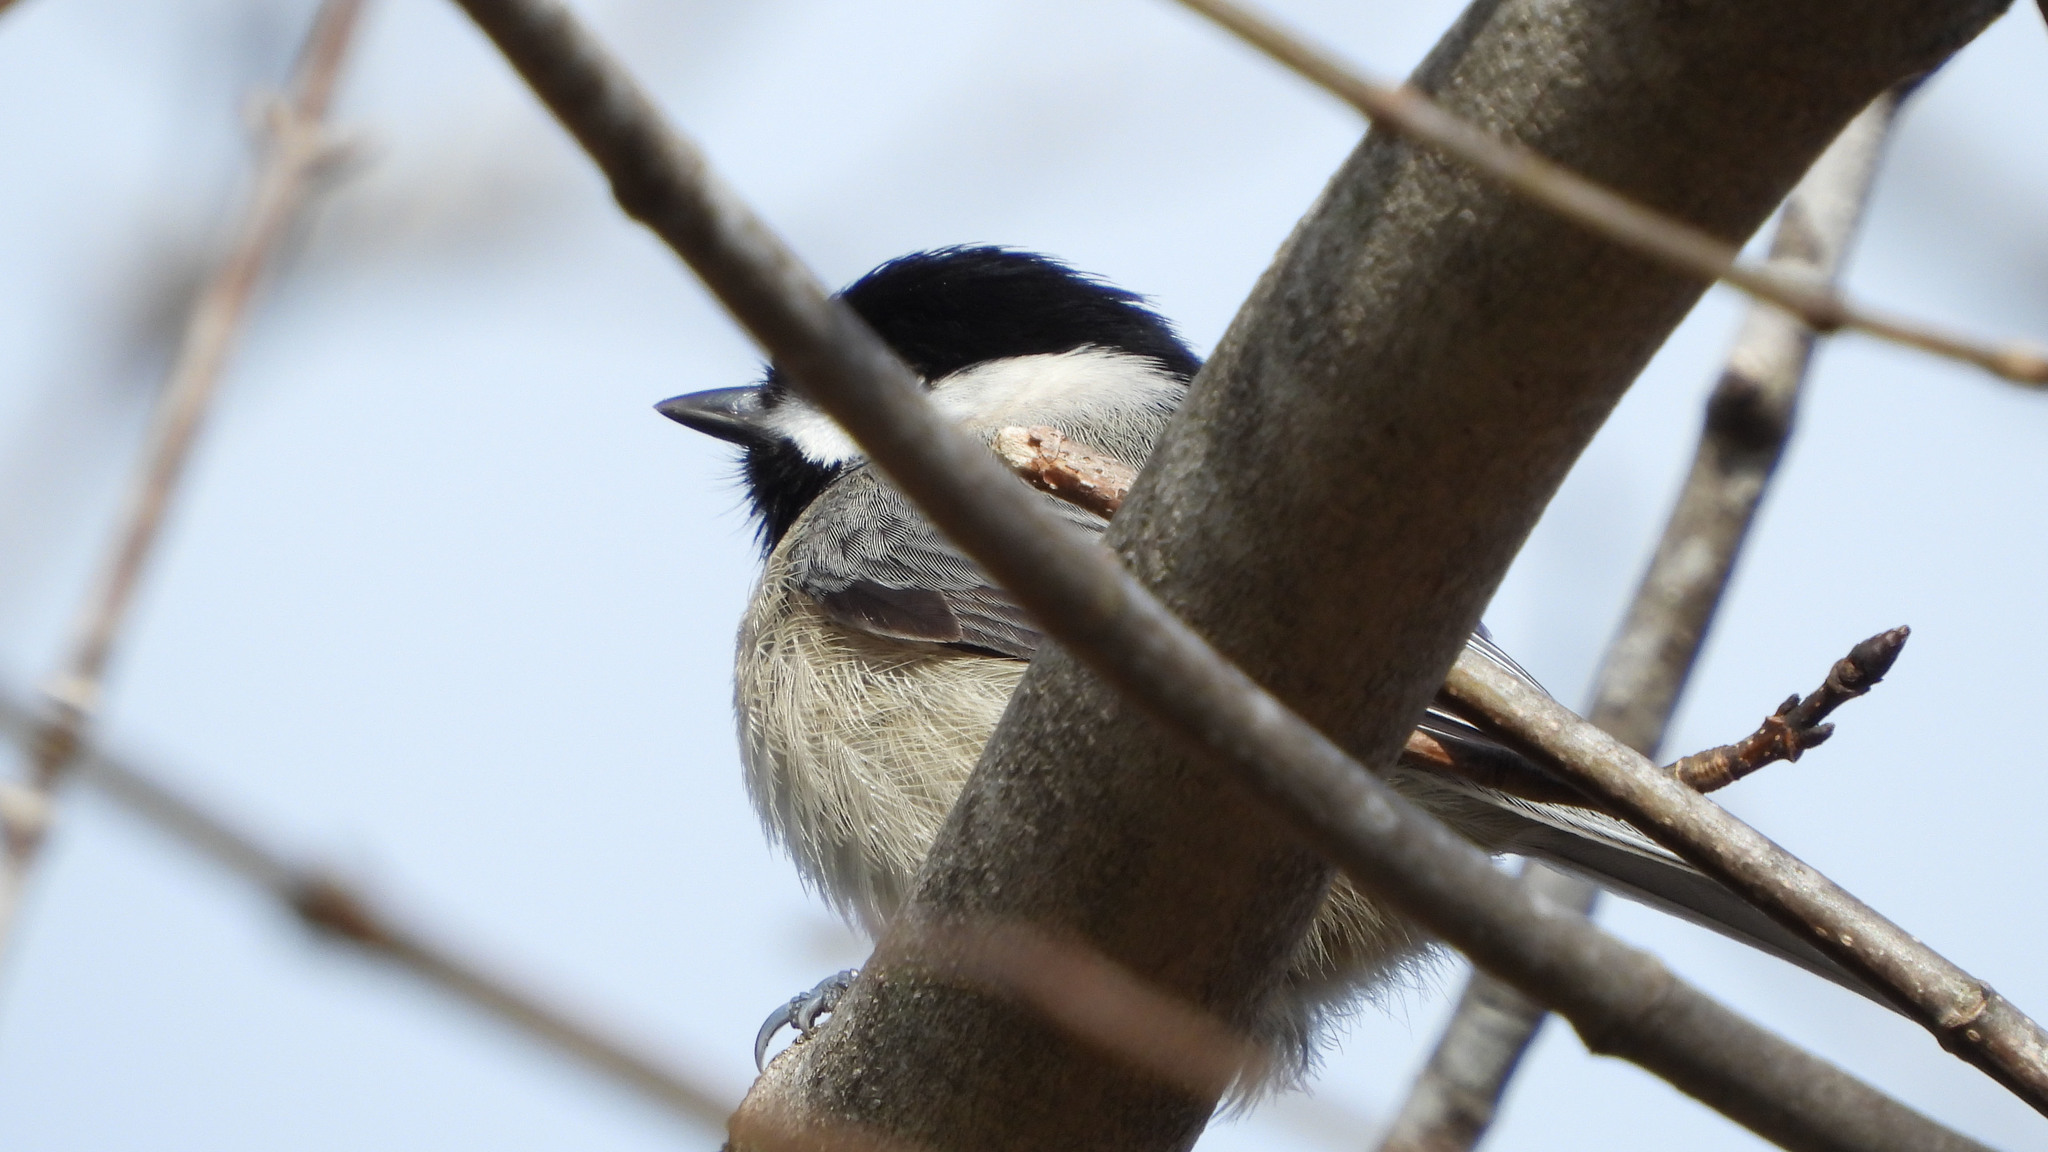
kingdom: Animalia
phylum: Chordata
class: Aves
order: Passeriformes
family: Paridae
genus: Poecile
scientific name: Poecile carolinensis
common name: Carolina chickadee
